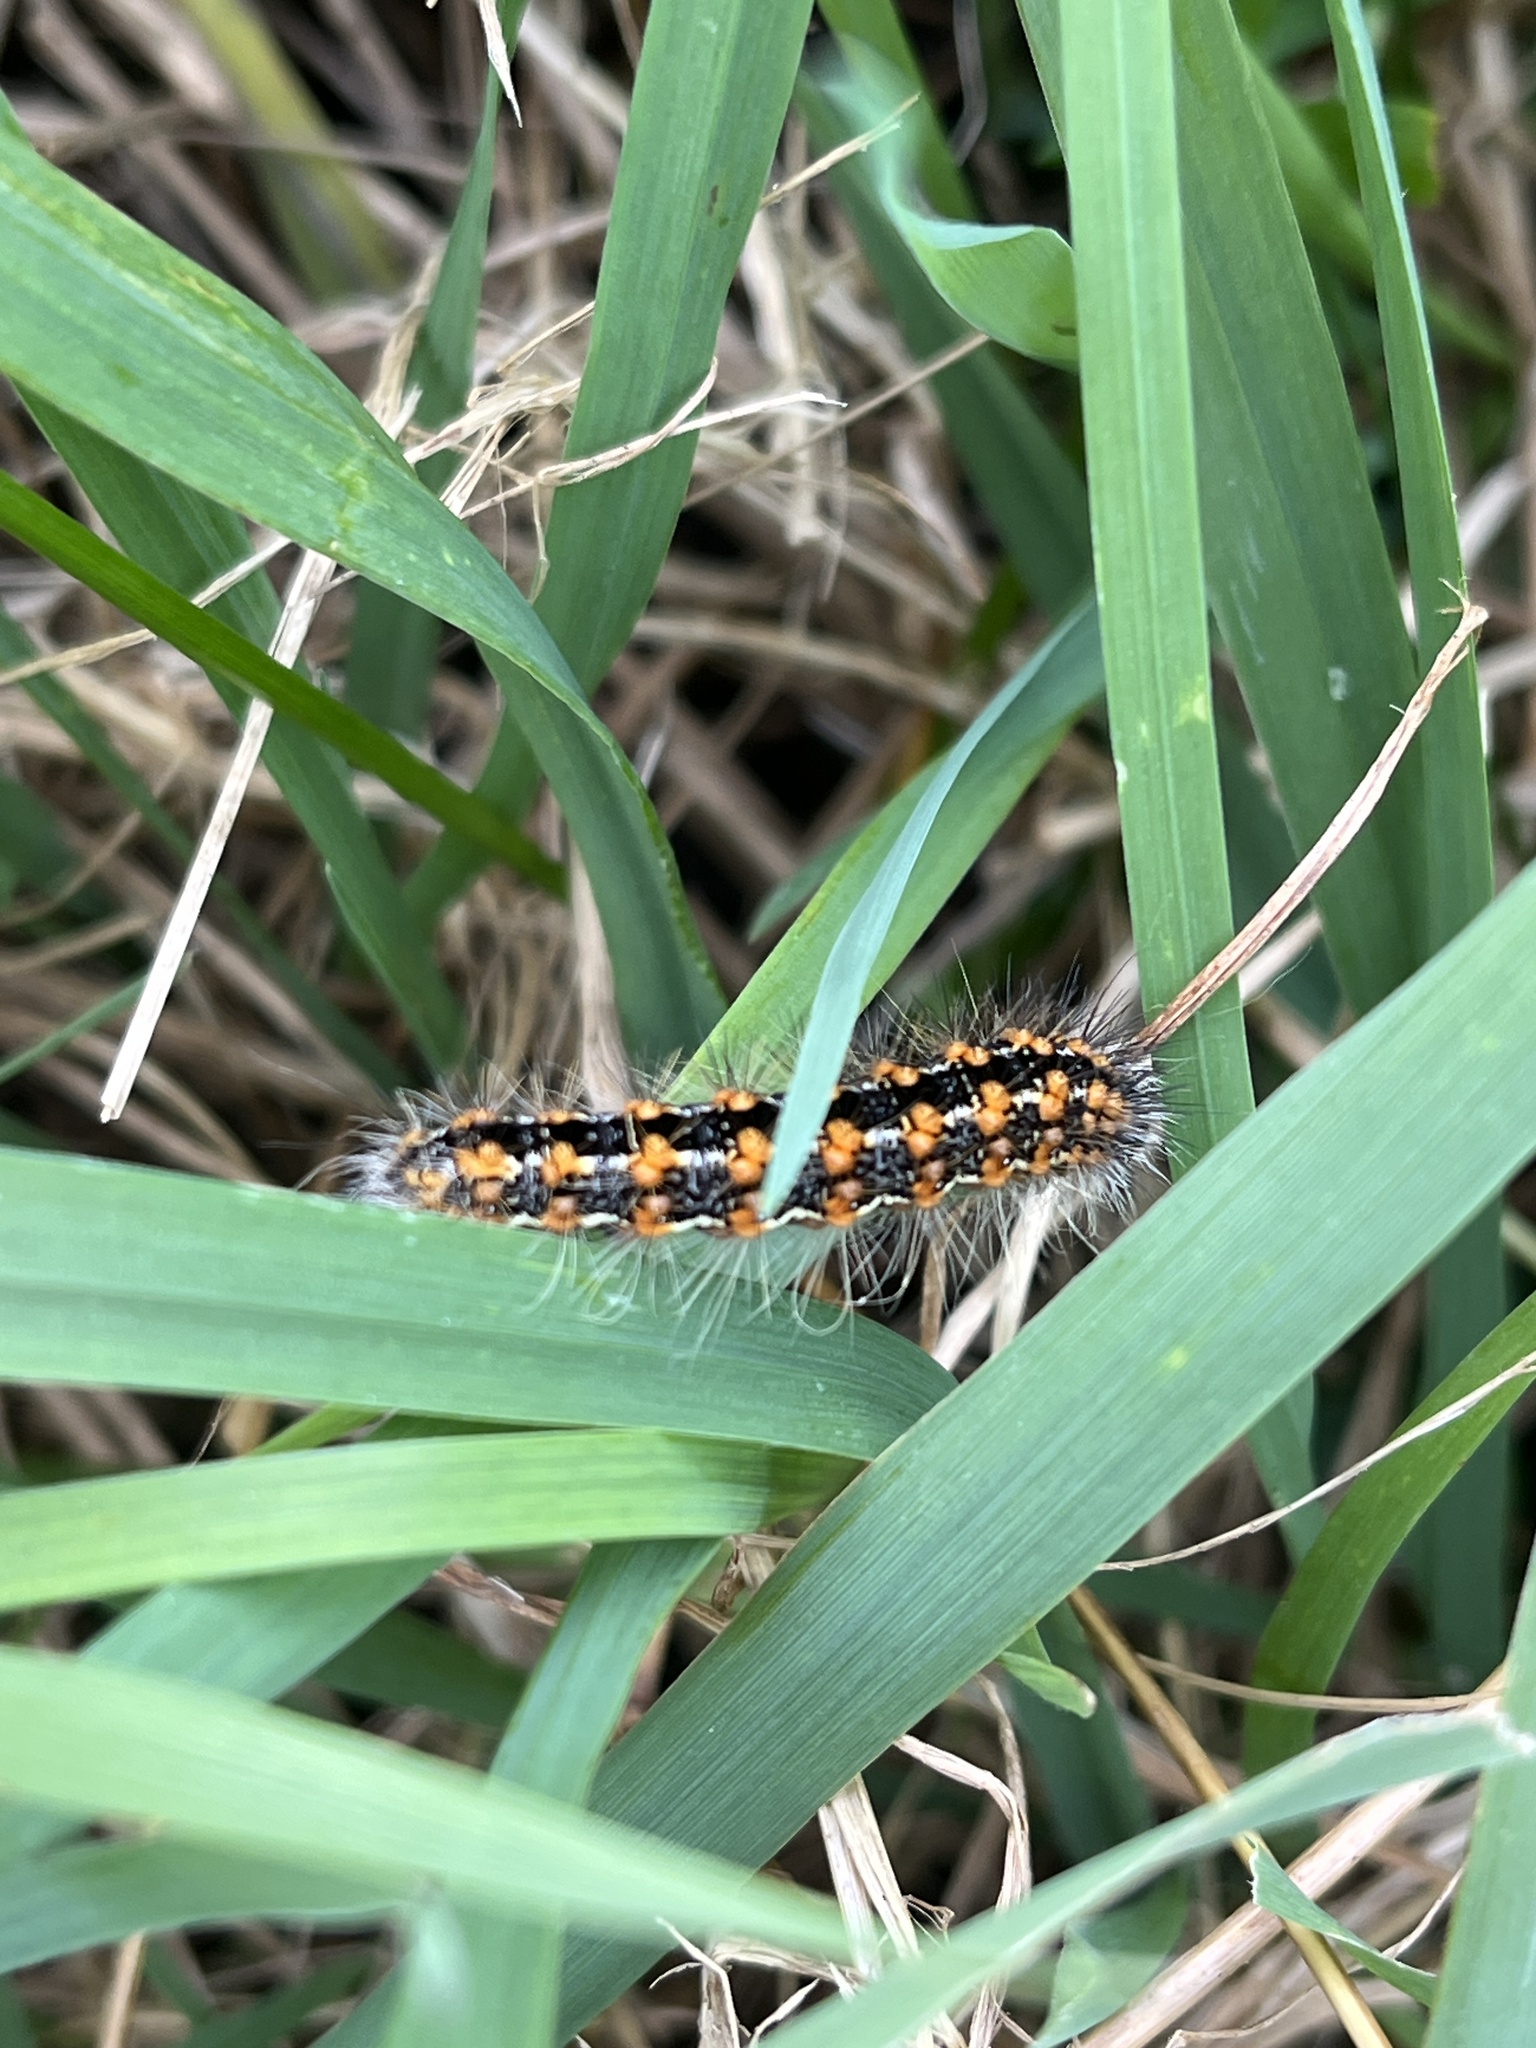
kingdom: Animalia
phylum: Arthropoda
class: Insecta
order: Lepidoptera
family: Noctuidae
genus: Acronicta
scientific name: Acronicta insularis
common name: Henry's marsh moth
